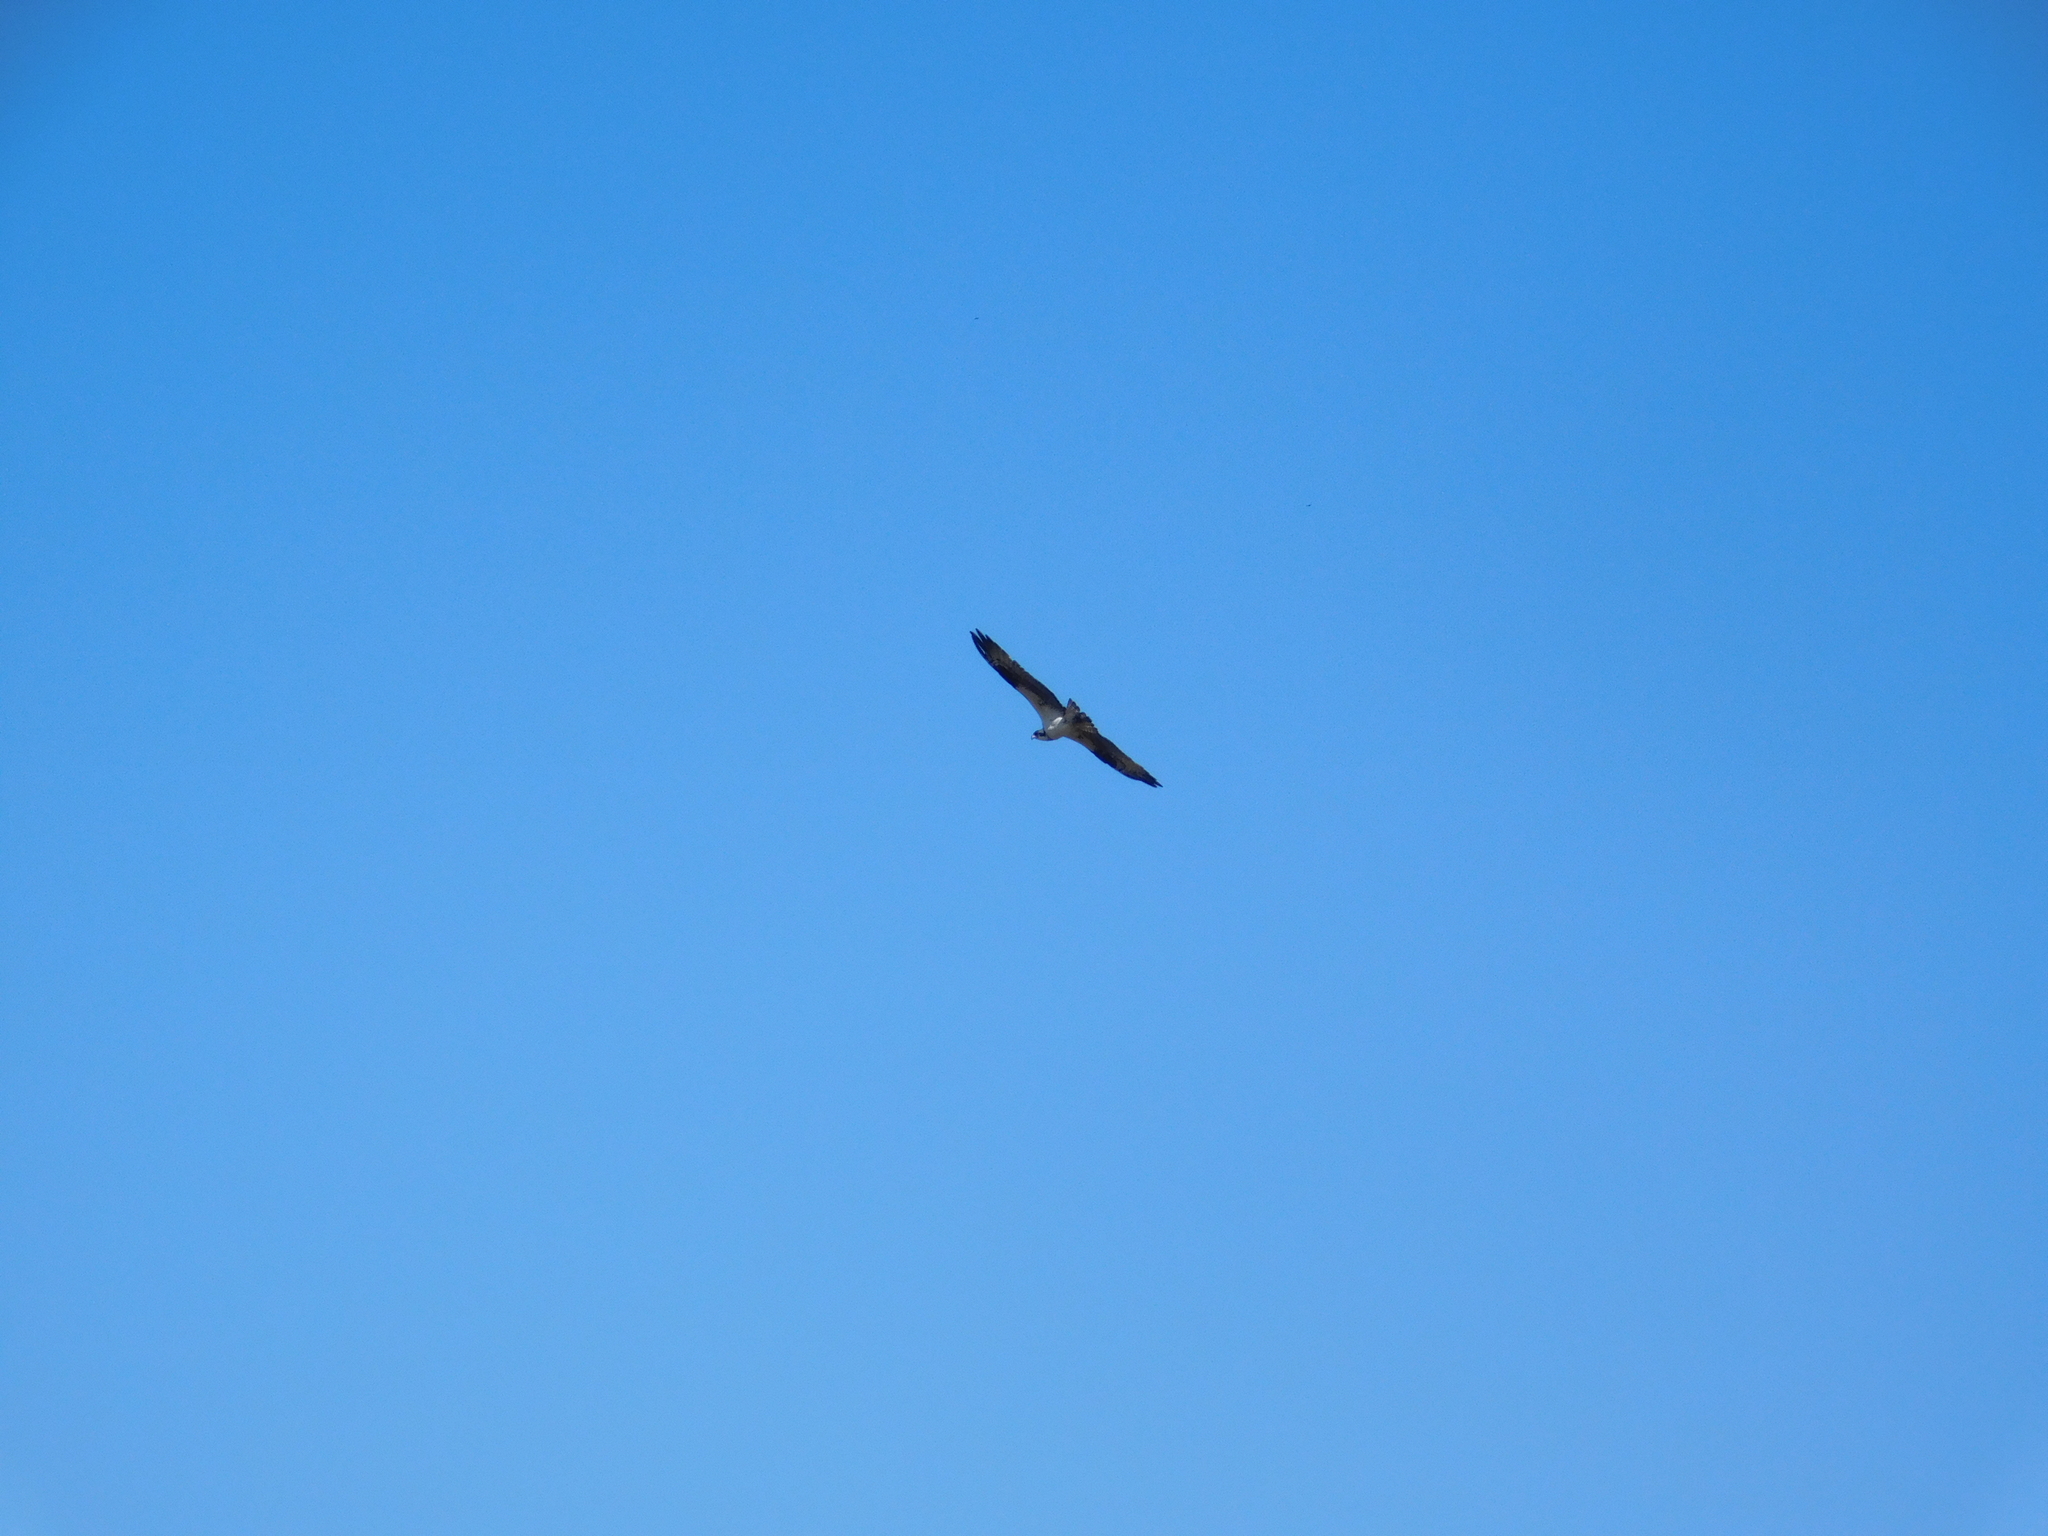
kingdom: Animalia
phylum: Chordata
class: Aves
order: Accipitriformes
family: Pandionidae
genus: Pandion
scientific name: Pandion haliaetus
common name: Osprey
